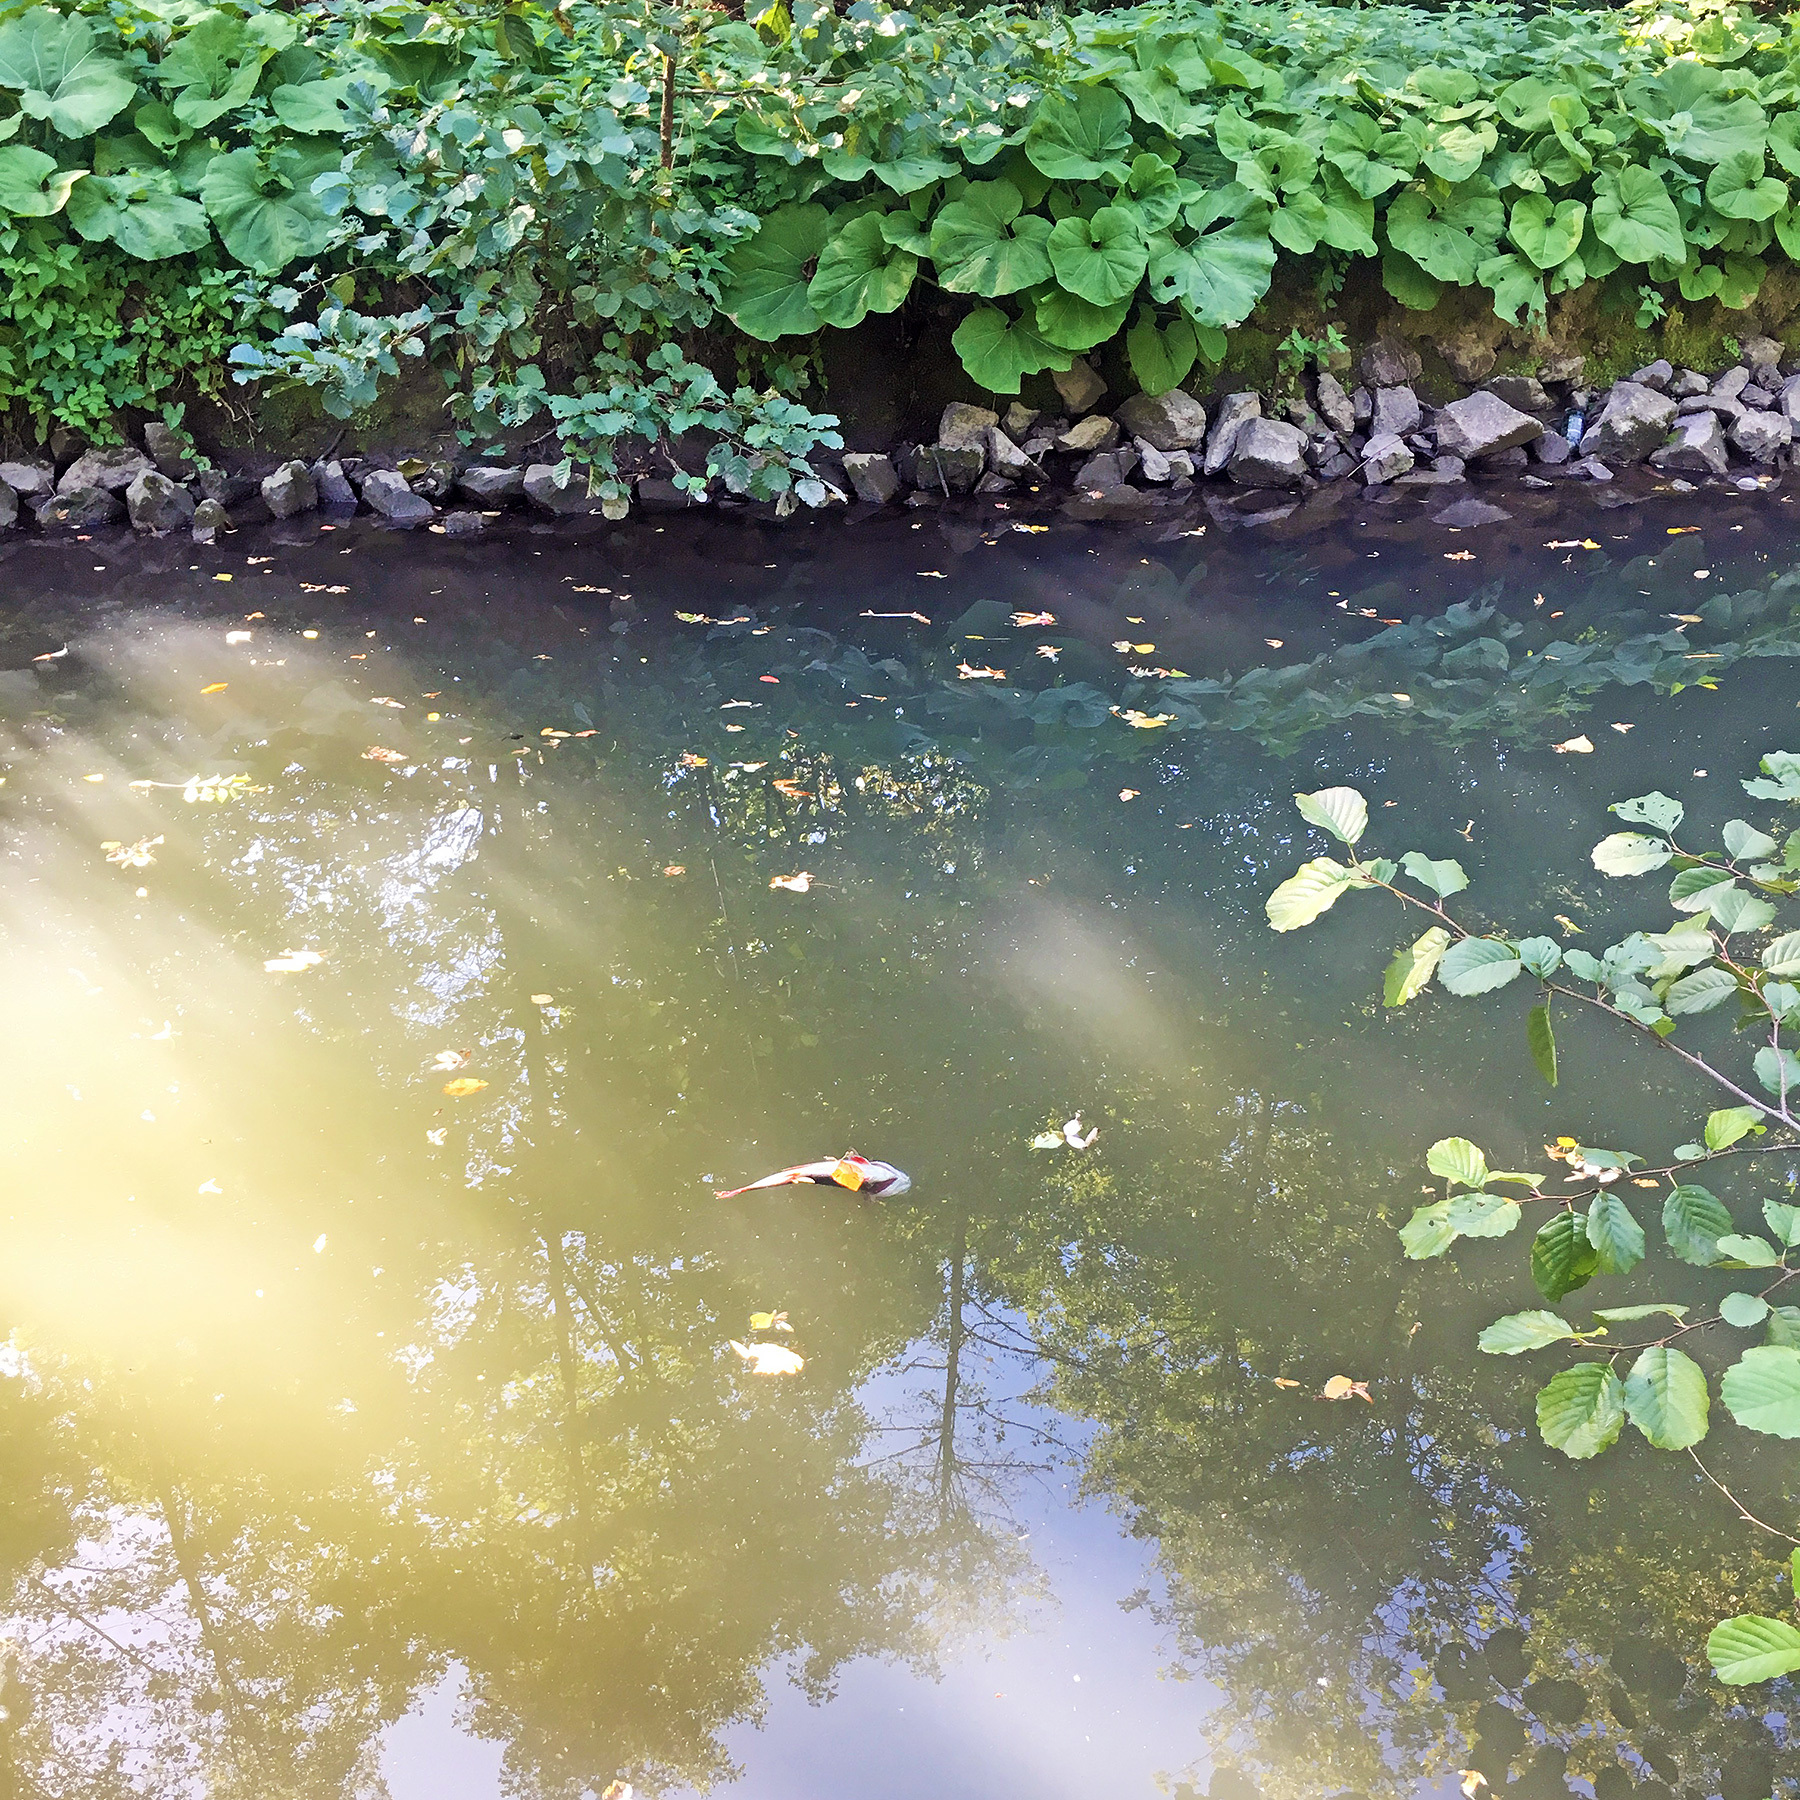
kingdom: Animalia
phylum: Chordata
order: Perciformes
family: Percidae
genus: Perca
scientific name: Perca fluviatilis
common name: Perch
